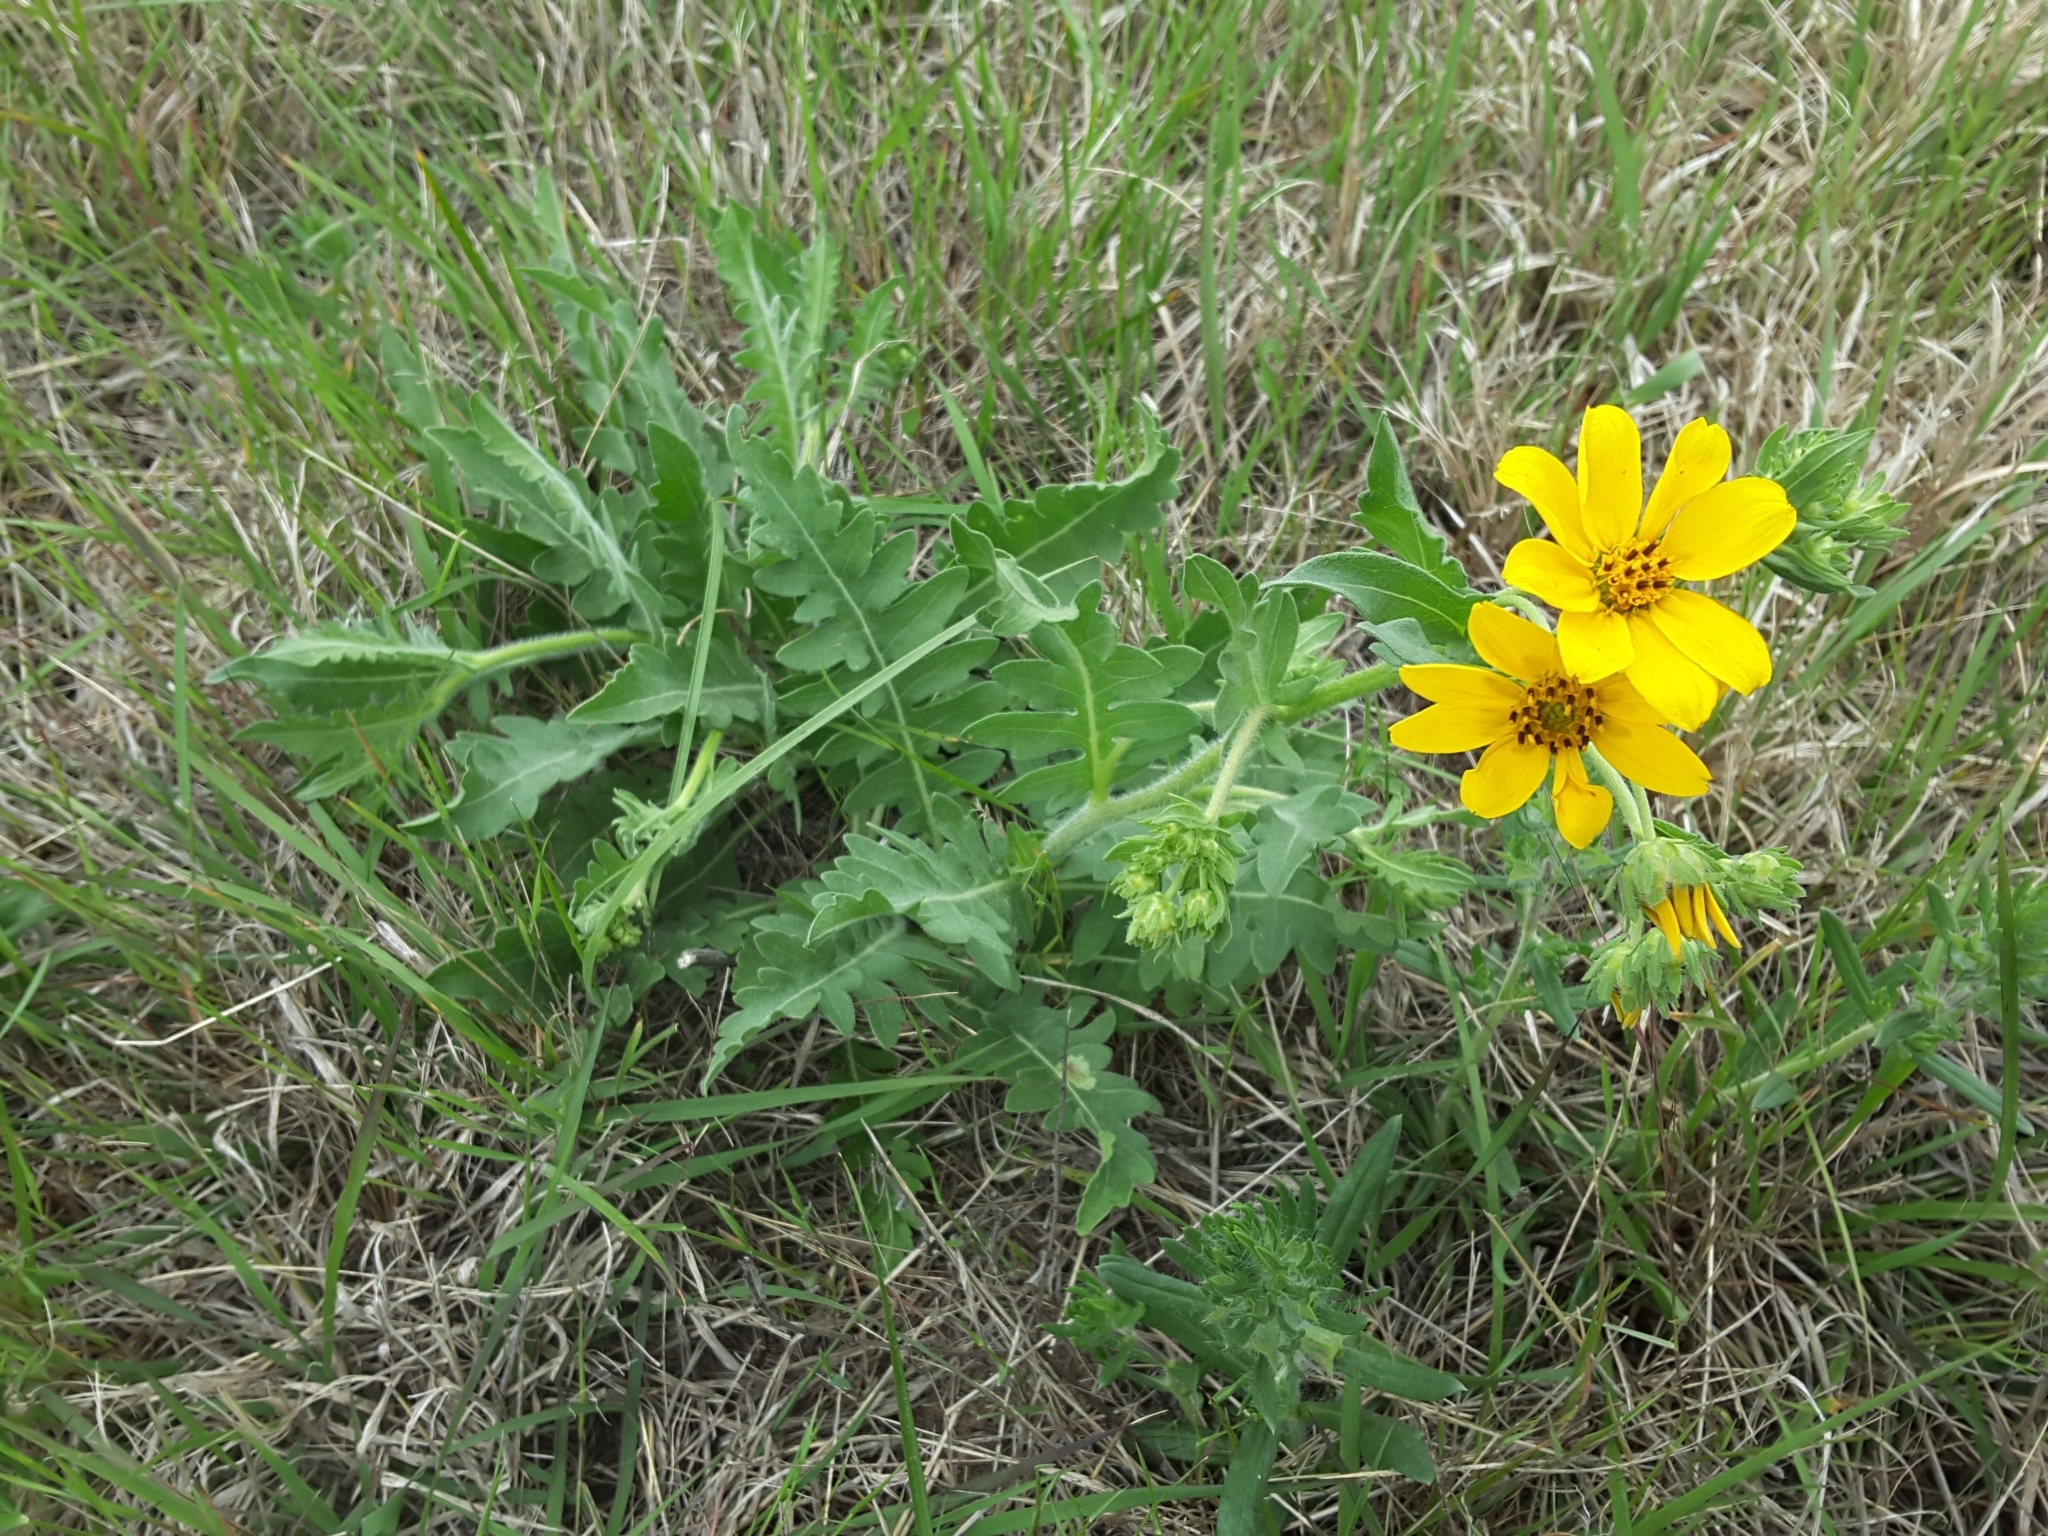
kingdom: Plantae
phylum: Tracheophyta
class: Magnoliopsida
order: Asterales
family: Asteraceae
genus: Engelmannia
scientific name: Engelmannia peristenia
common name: Engelmann's daisy
